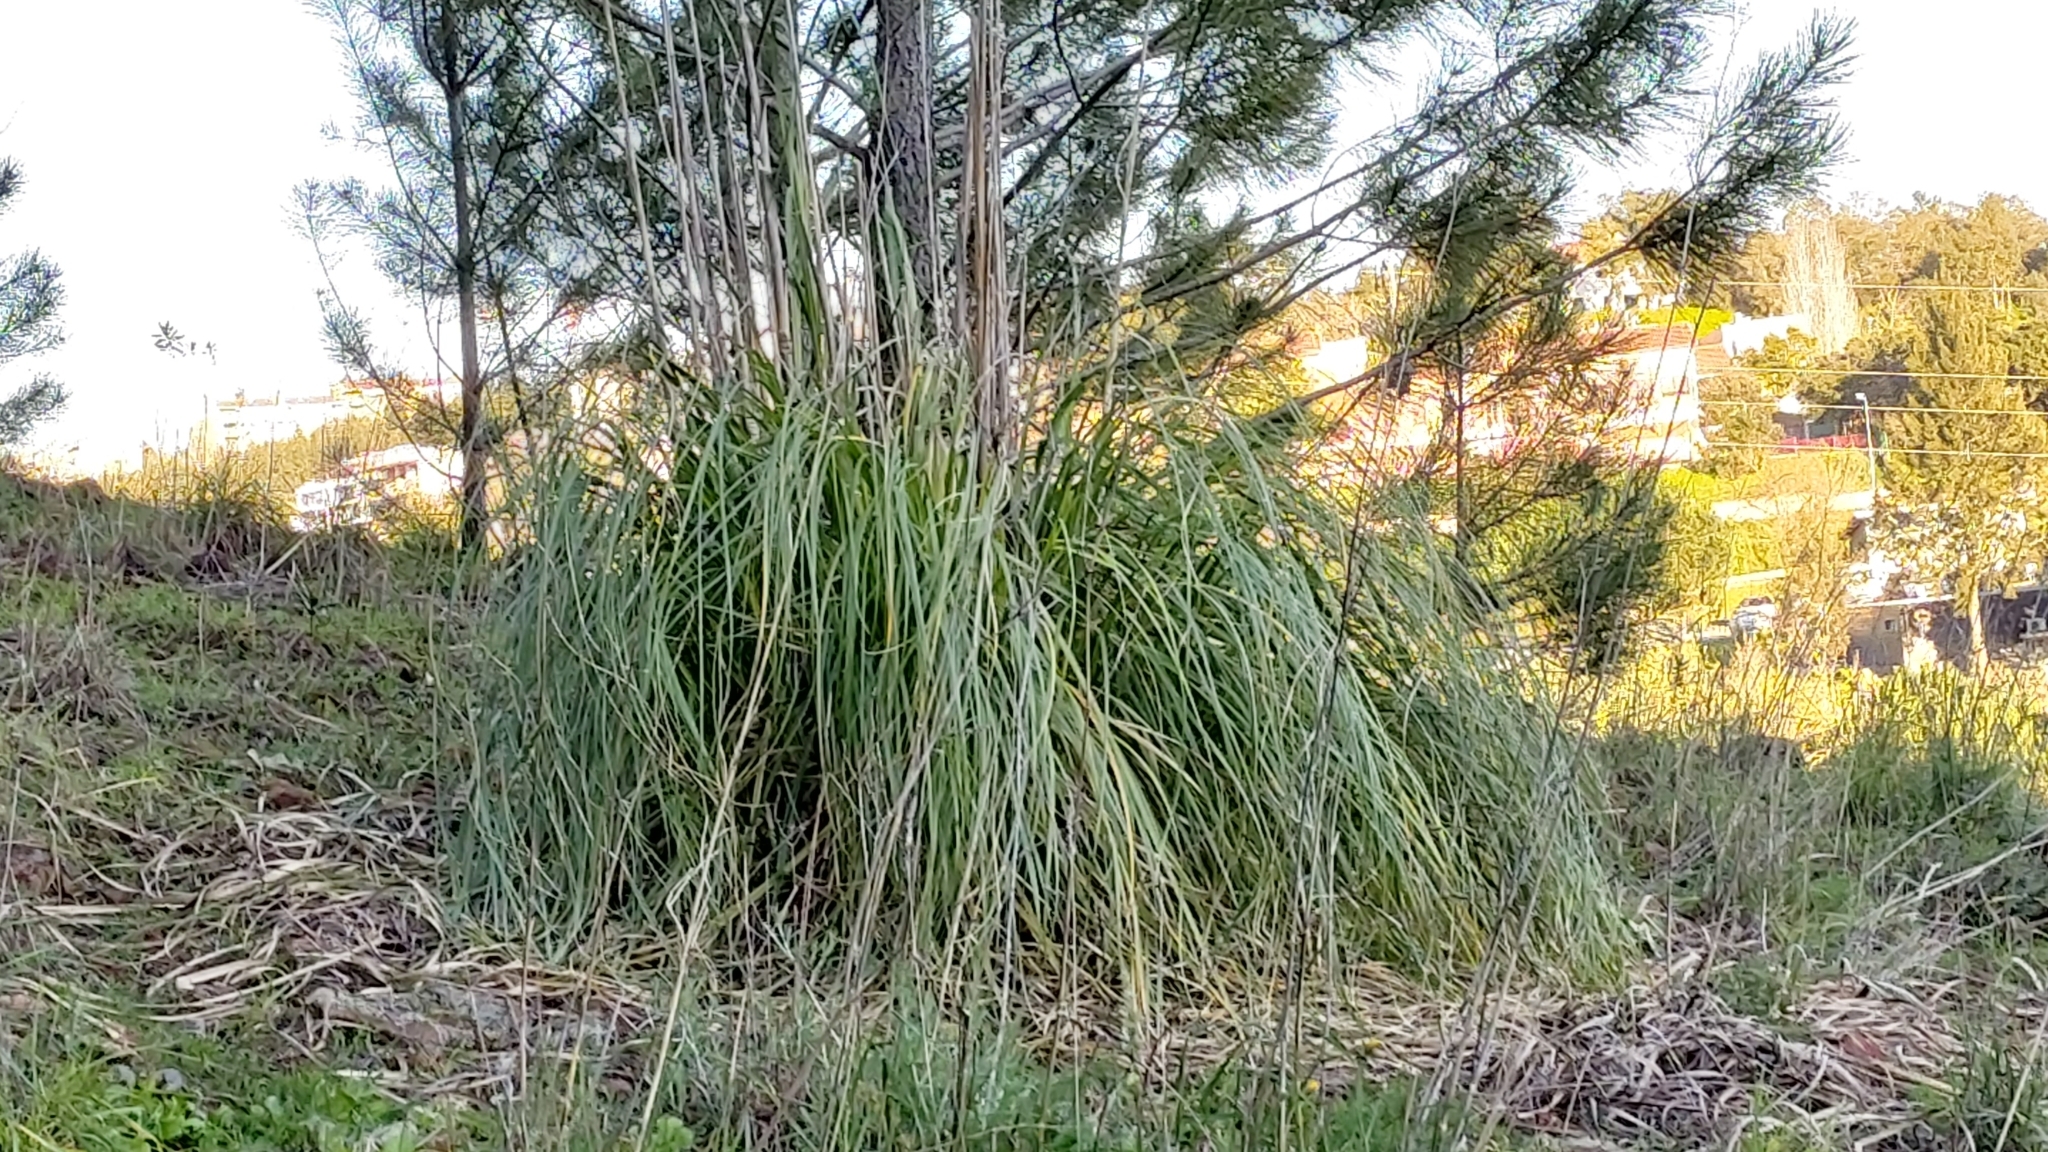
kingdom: Plantae
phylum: Tracheophyta
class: Liliopsida
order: Poales
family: Poaceae
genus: Cortaderia
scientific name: Cortaderia selloana
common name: Uruguayan pampas grass
